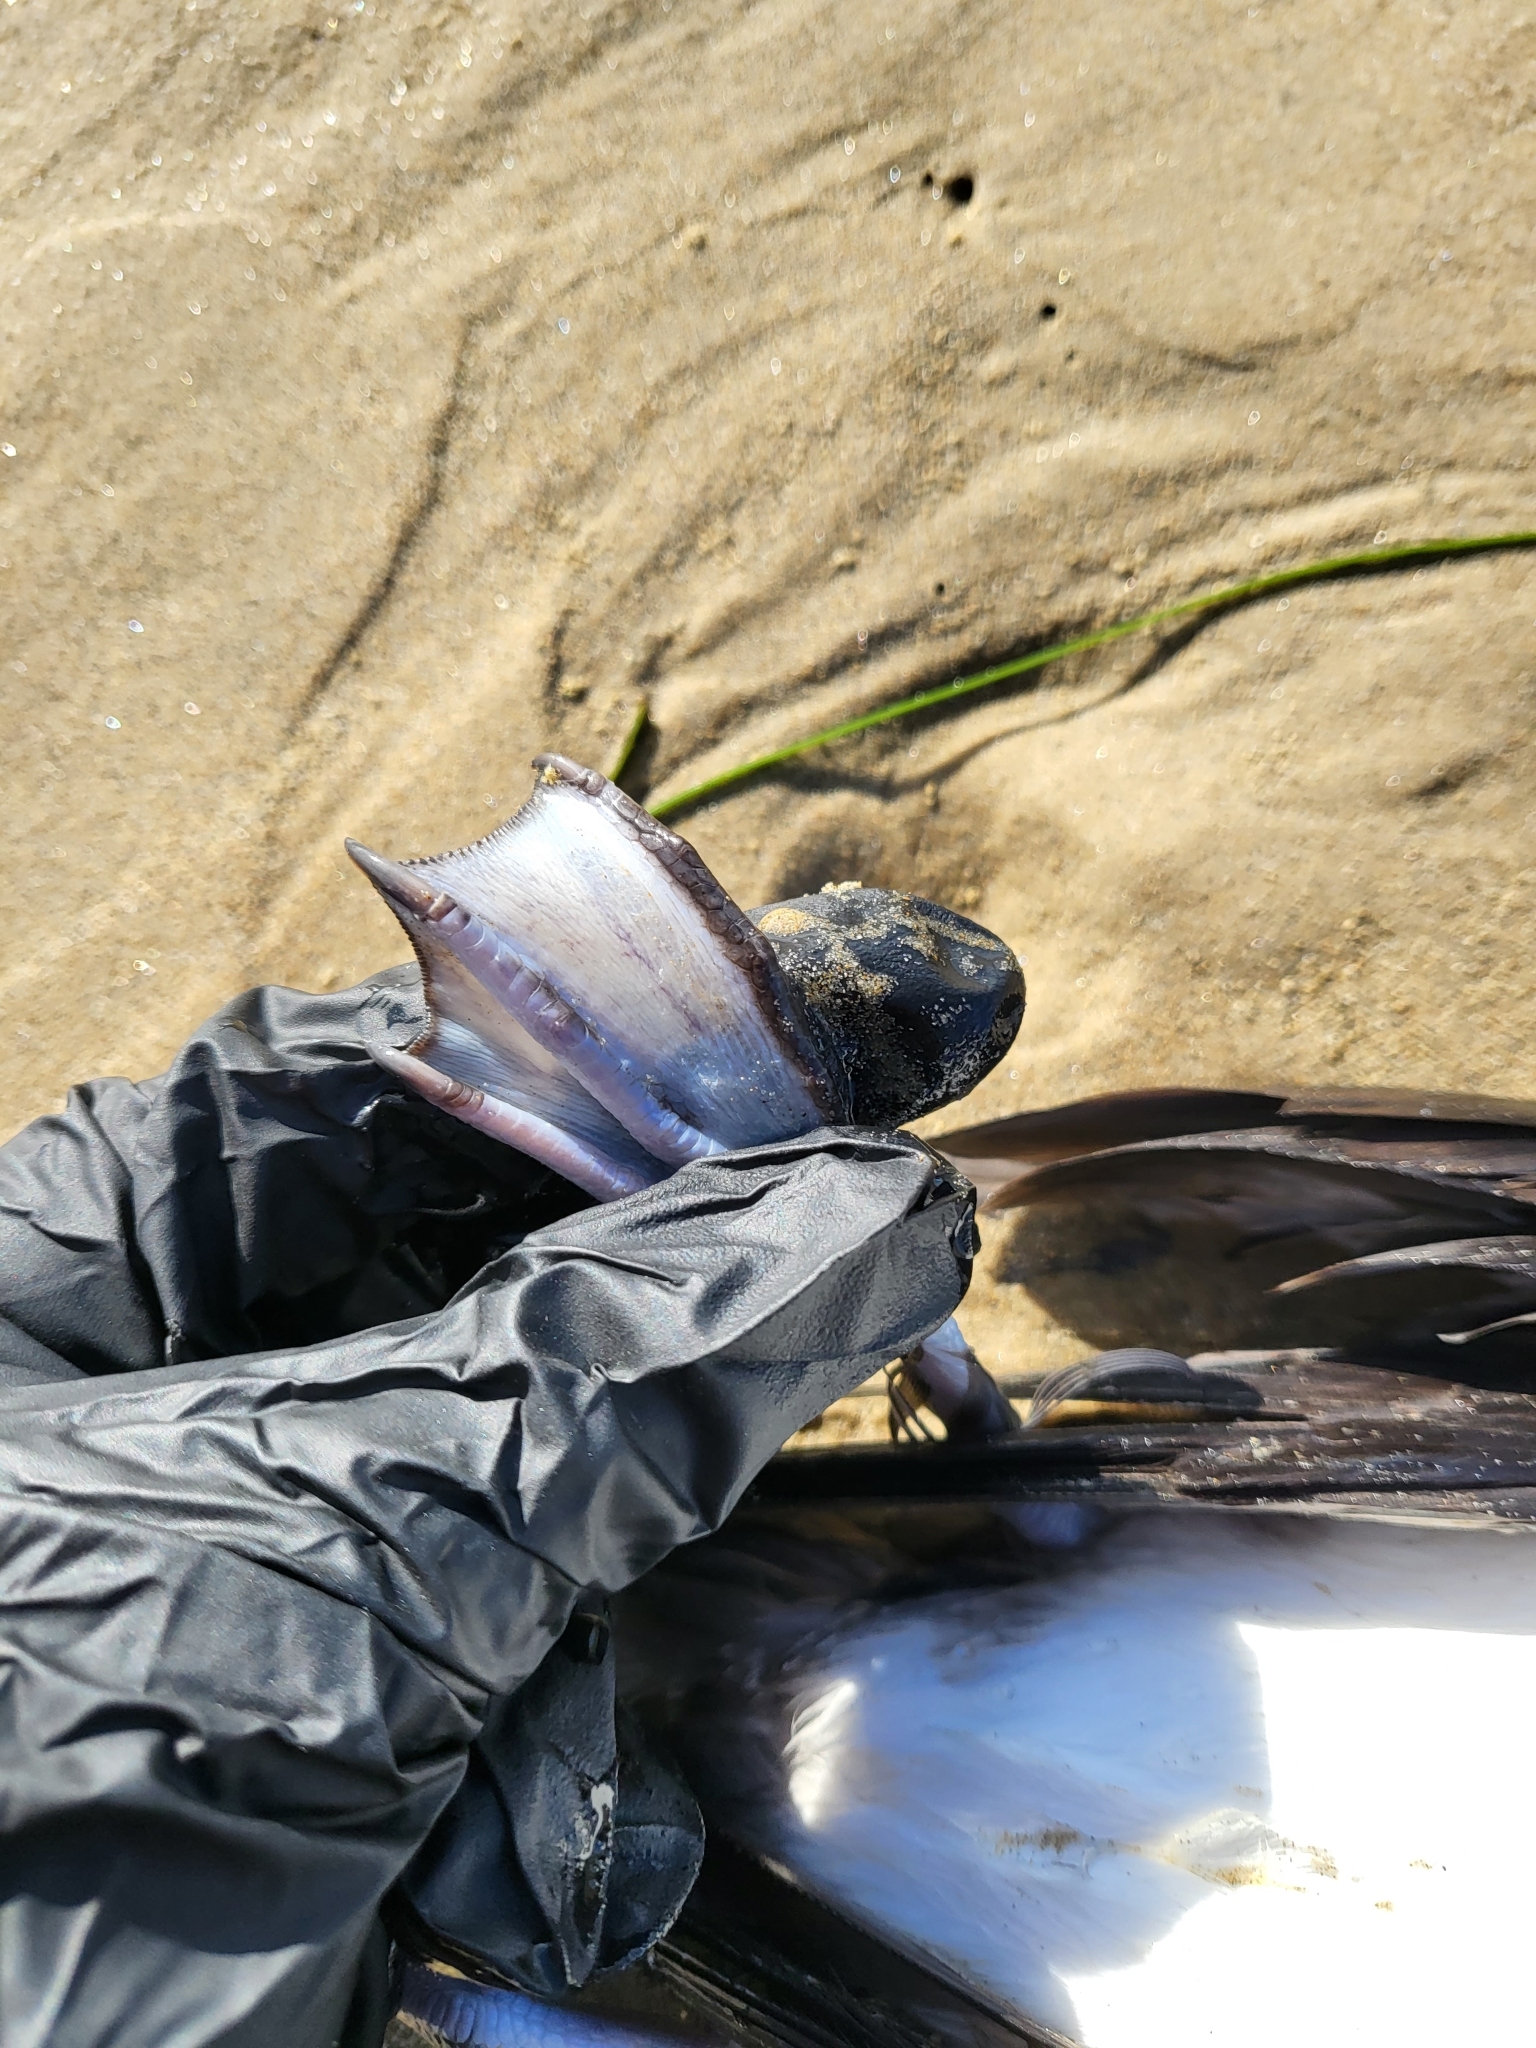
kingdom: Animalia
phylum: Chordata
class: Aves
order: Procellariiformes
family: Procellariidae
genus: Puffinus
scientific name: Puffinus opisthomelas
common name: Black-vented shearwater
